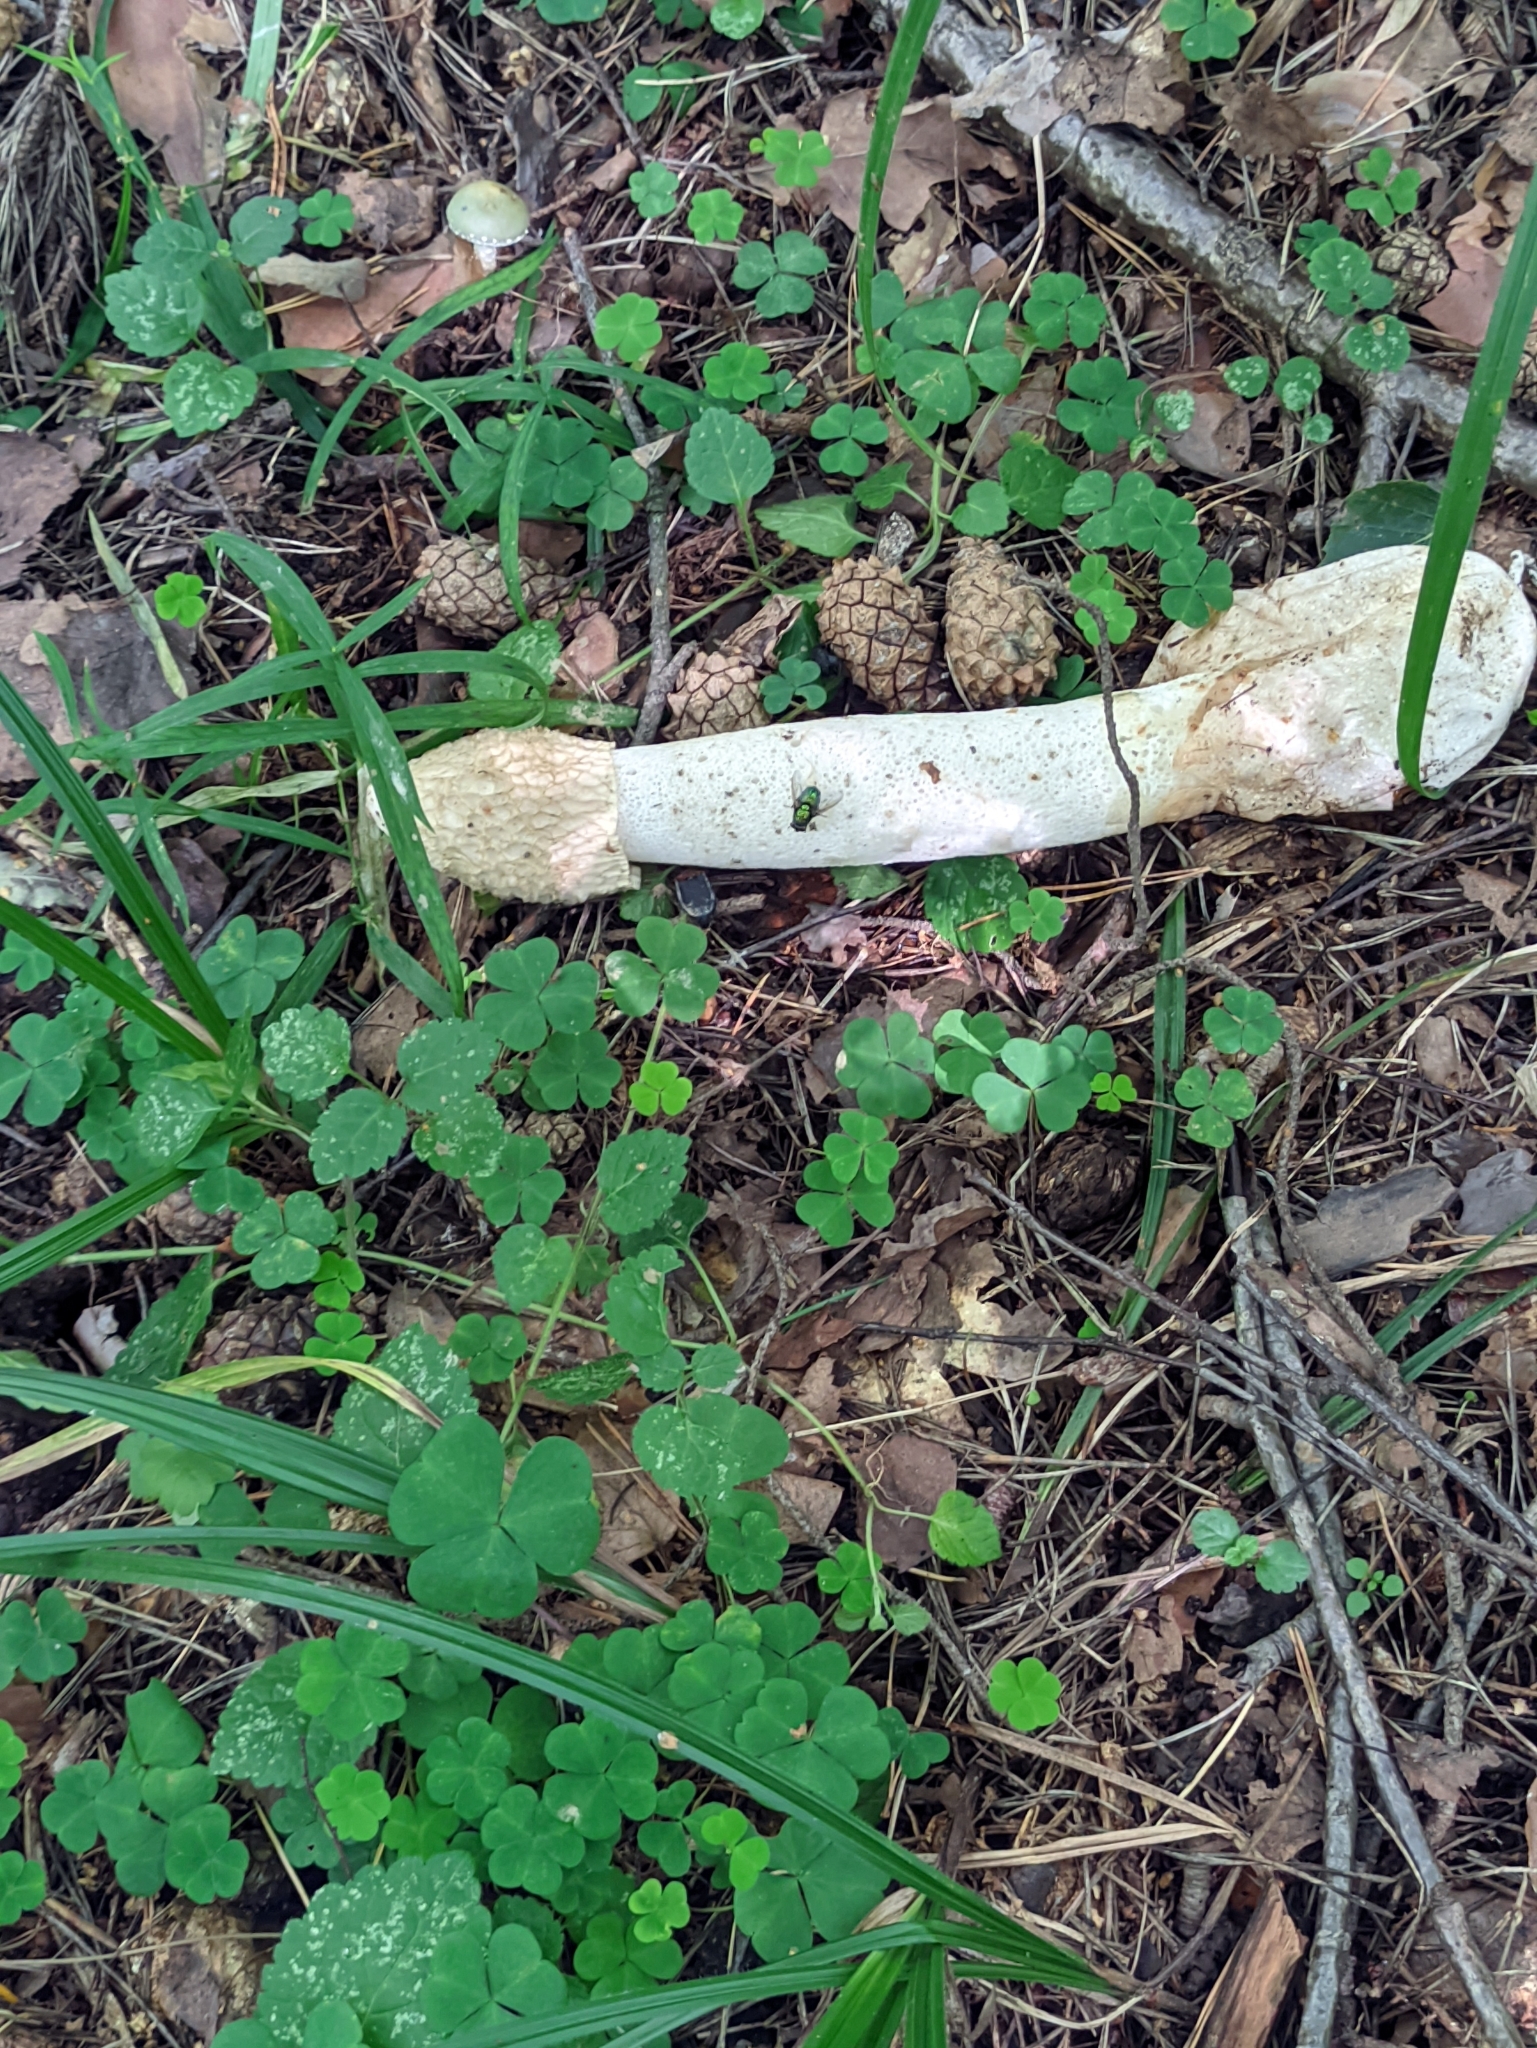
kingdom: Fungi
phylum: Basidiomycota
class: Agaricomycetes
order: Phallales
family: Phallaceae
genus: Phallus
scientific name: Phallus impudicus
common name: Common stinkhorn
